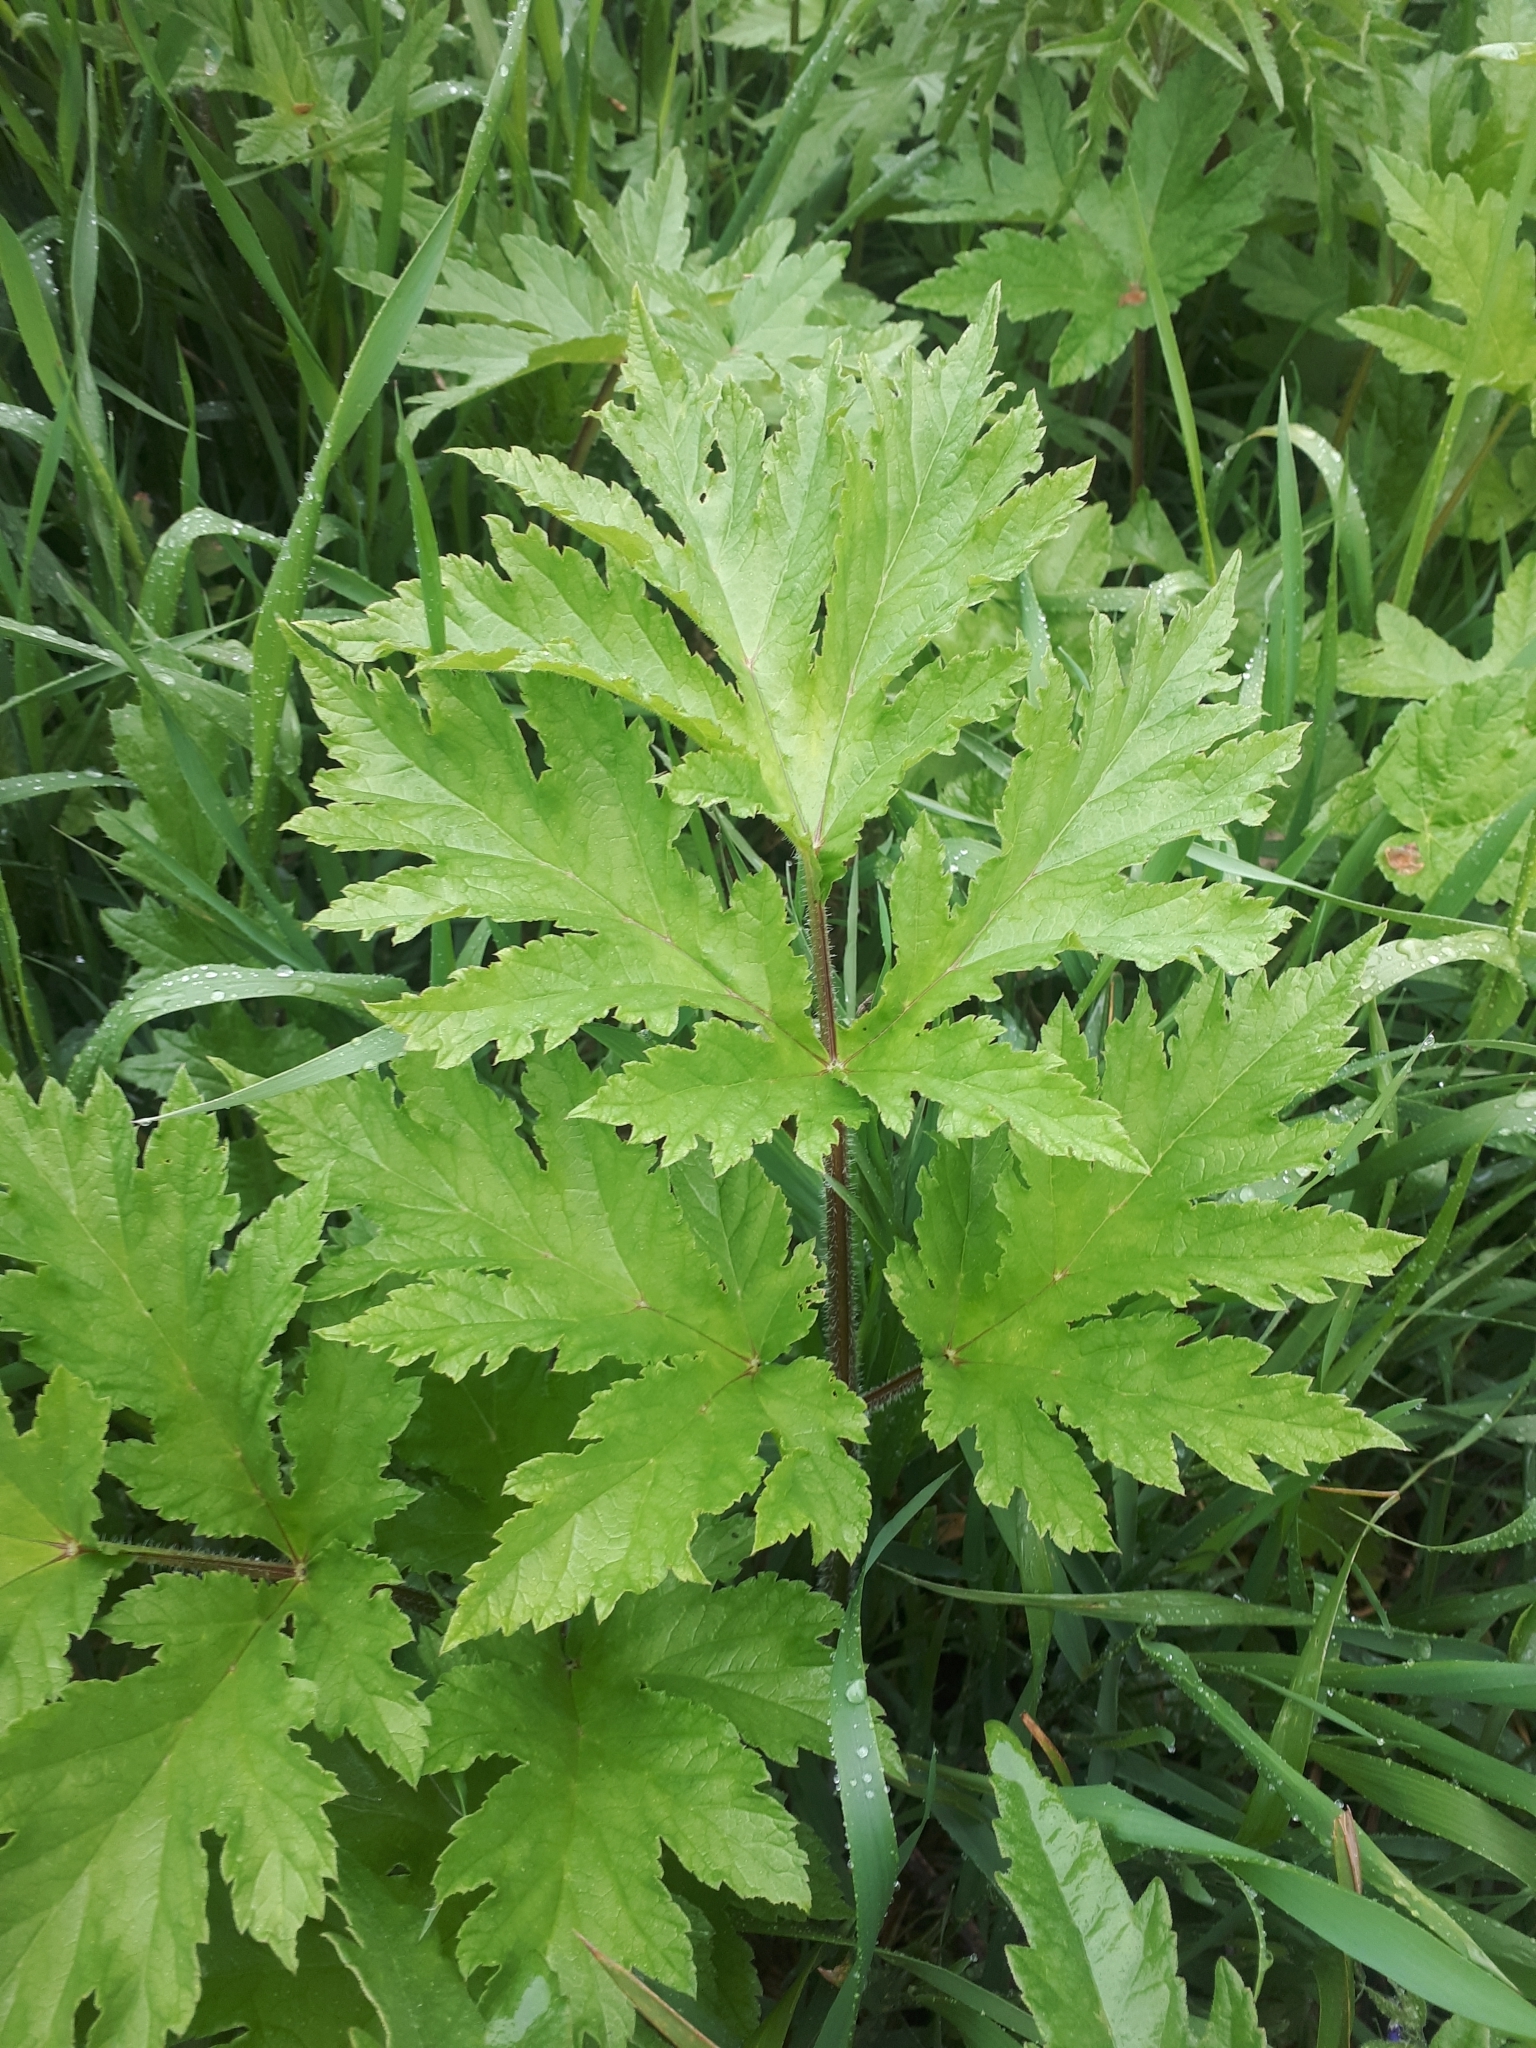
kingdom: Plantae
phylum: Tracheophyta
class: Magnoliopsida
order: Apiales
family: Apiaceae
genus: Heracleum
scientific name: Heracleum sphondylium
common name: Hogweed
